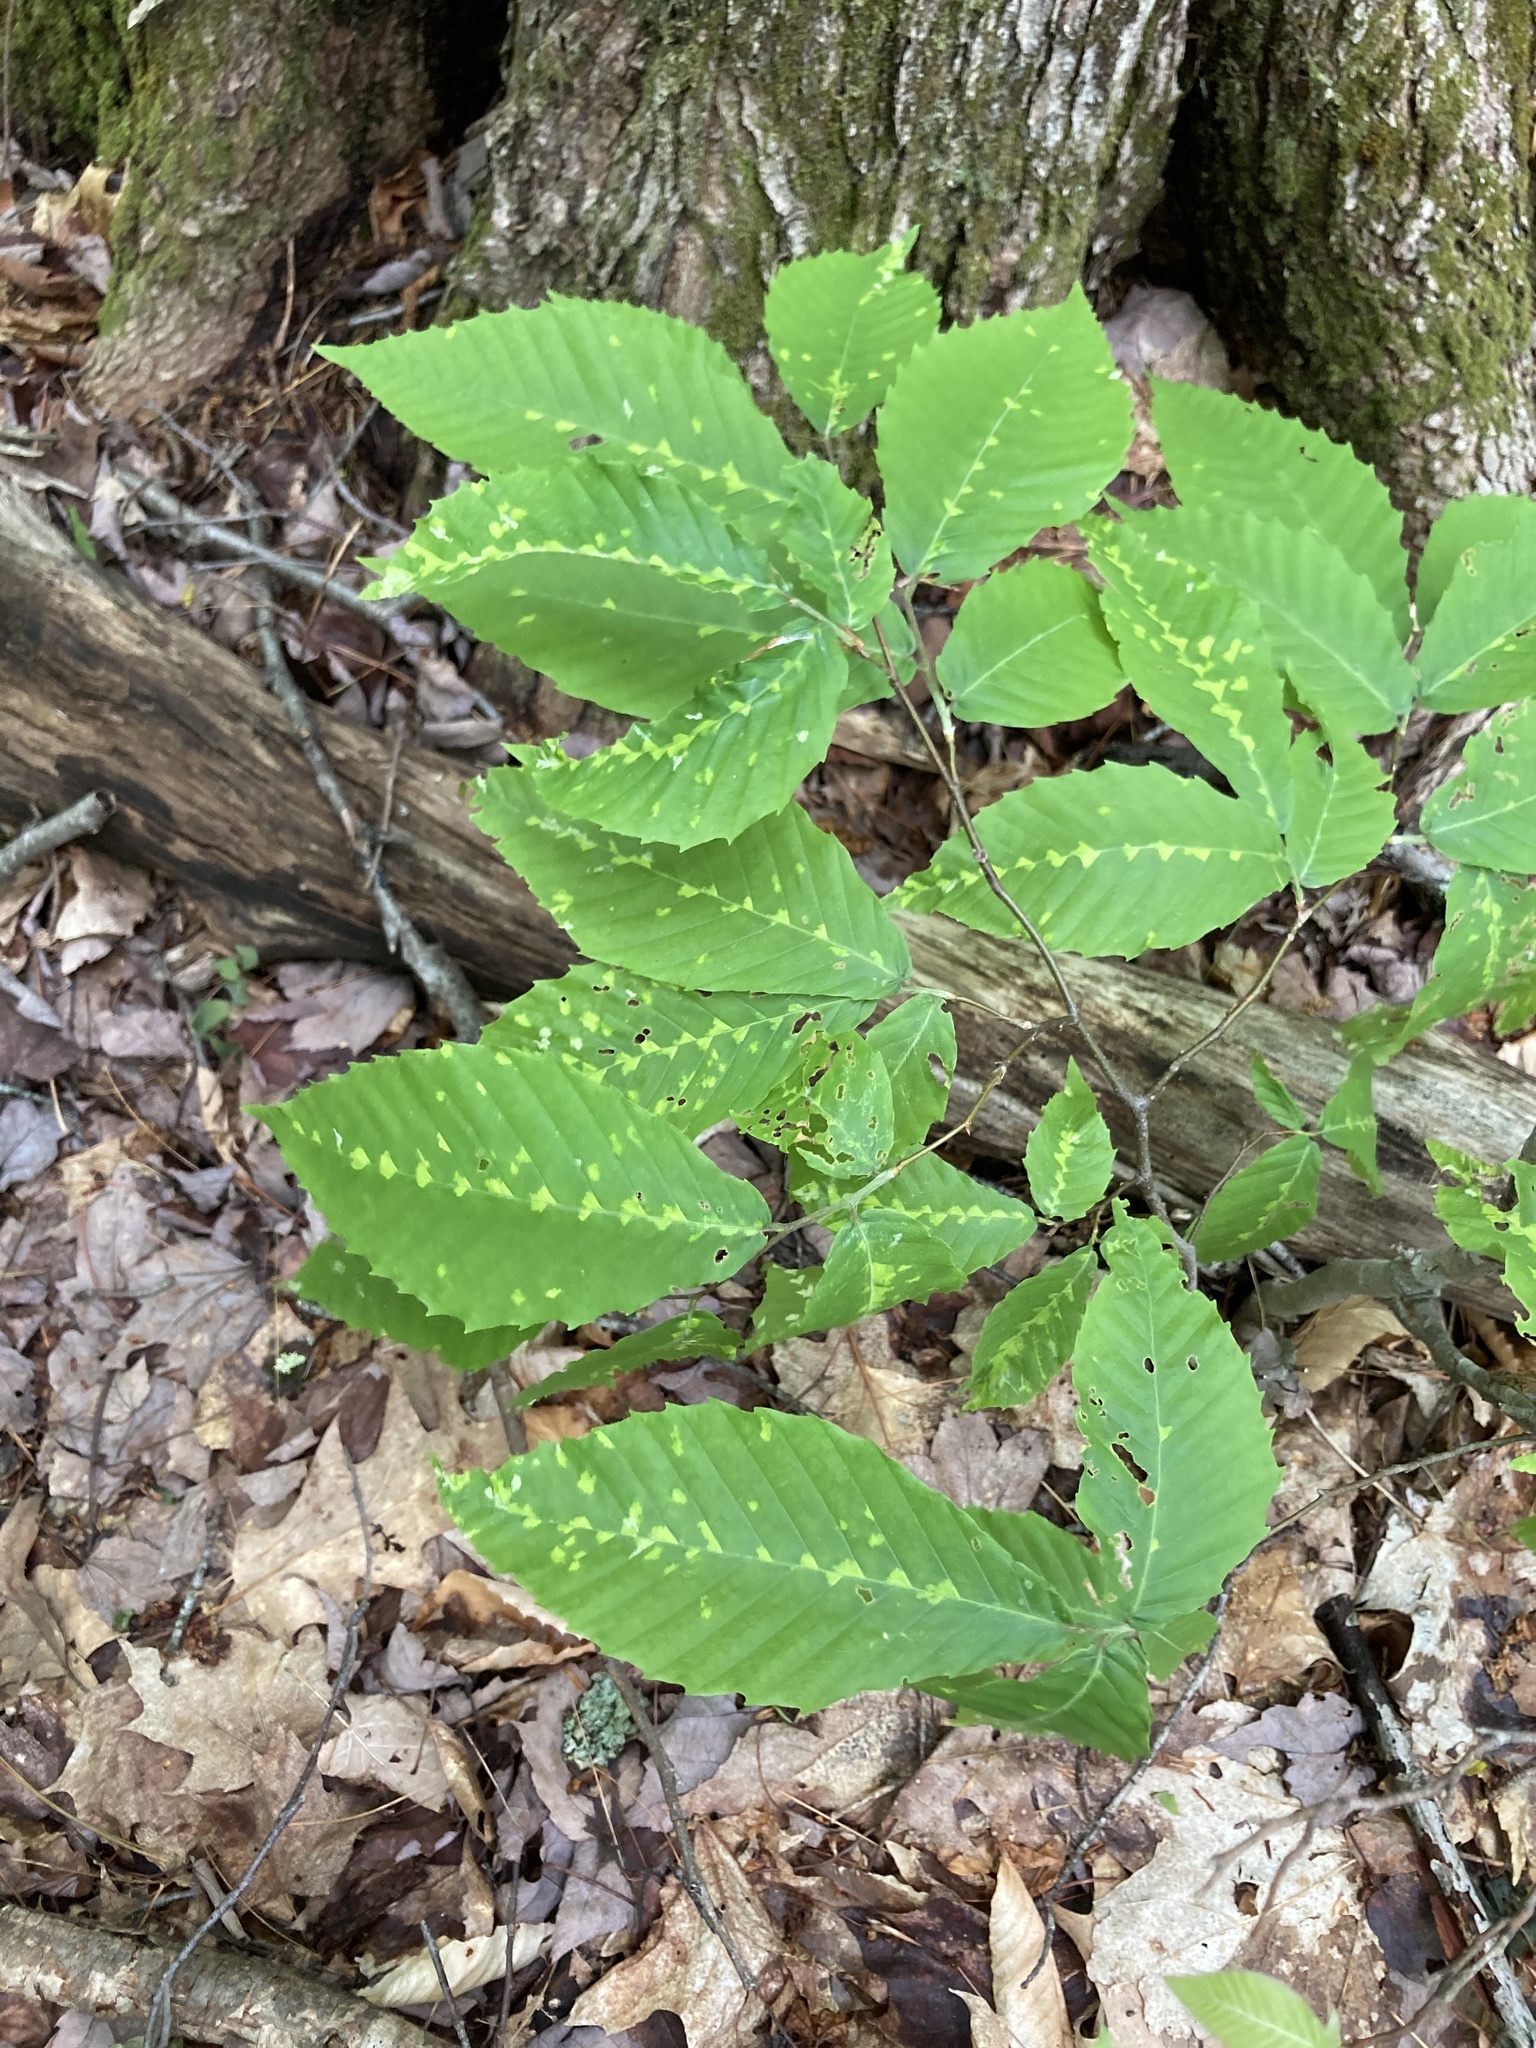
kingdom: Animalia
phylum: Arthropoda
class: Arachnida
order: Trombidiformes
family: Eriophyidae
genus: Acalitus
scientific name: Acalitus
